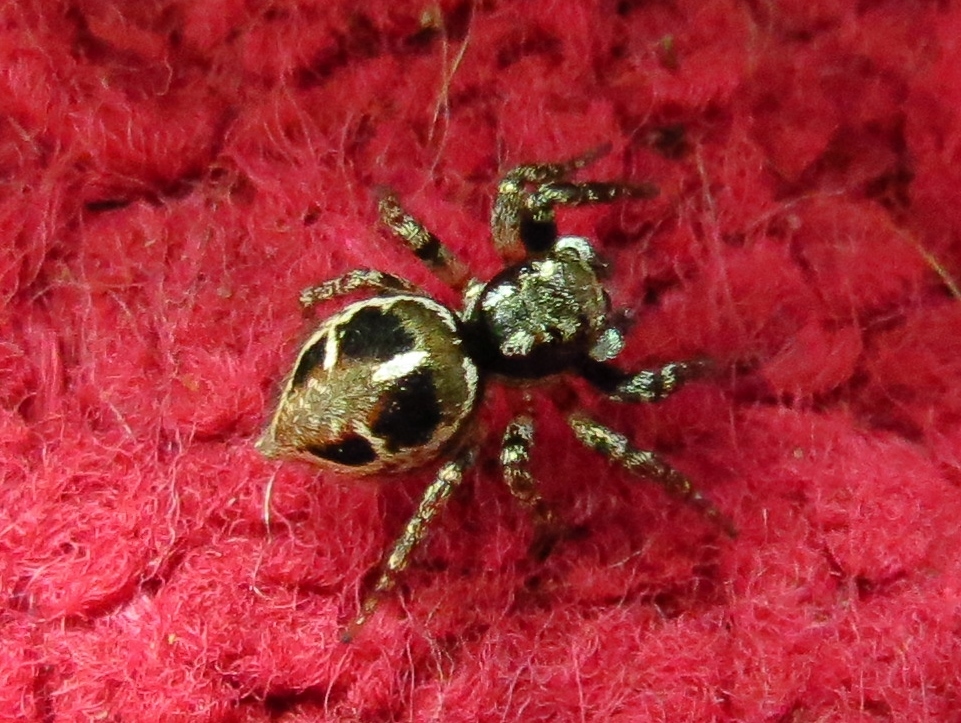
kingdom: Animalia
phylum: Arthropoda
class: Arachnida
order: Araneae
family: Salticidae
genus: Anasaitis
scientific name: Anasaitis canosa
